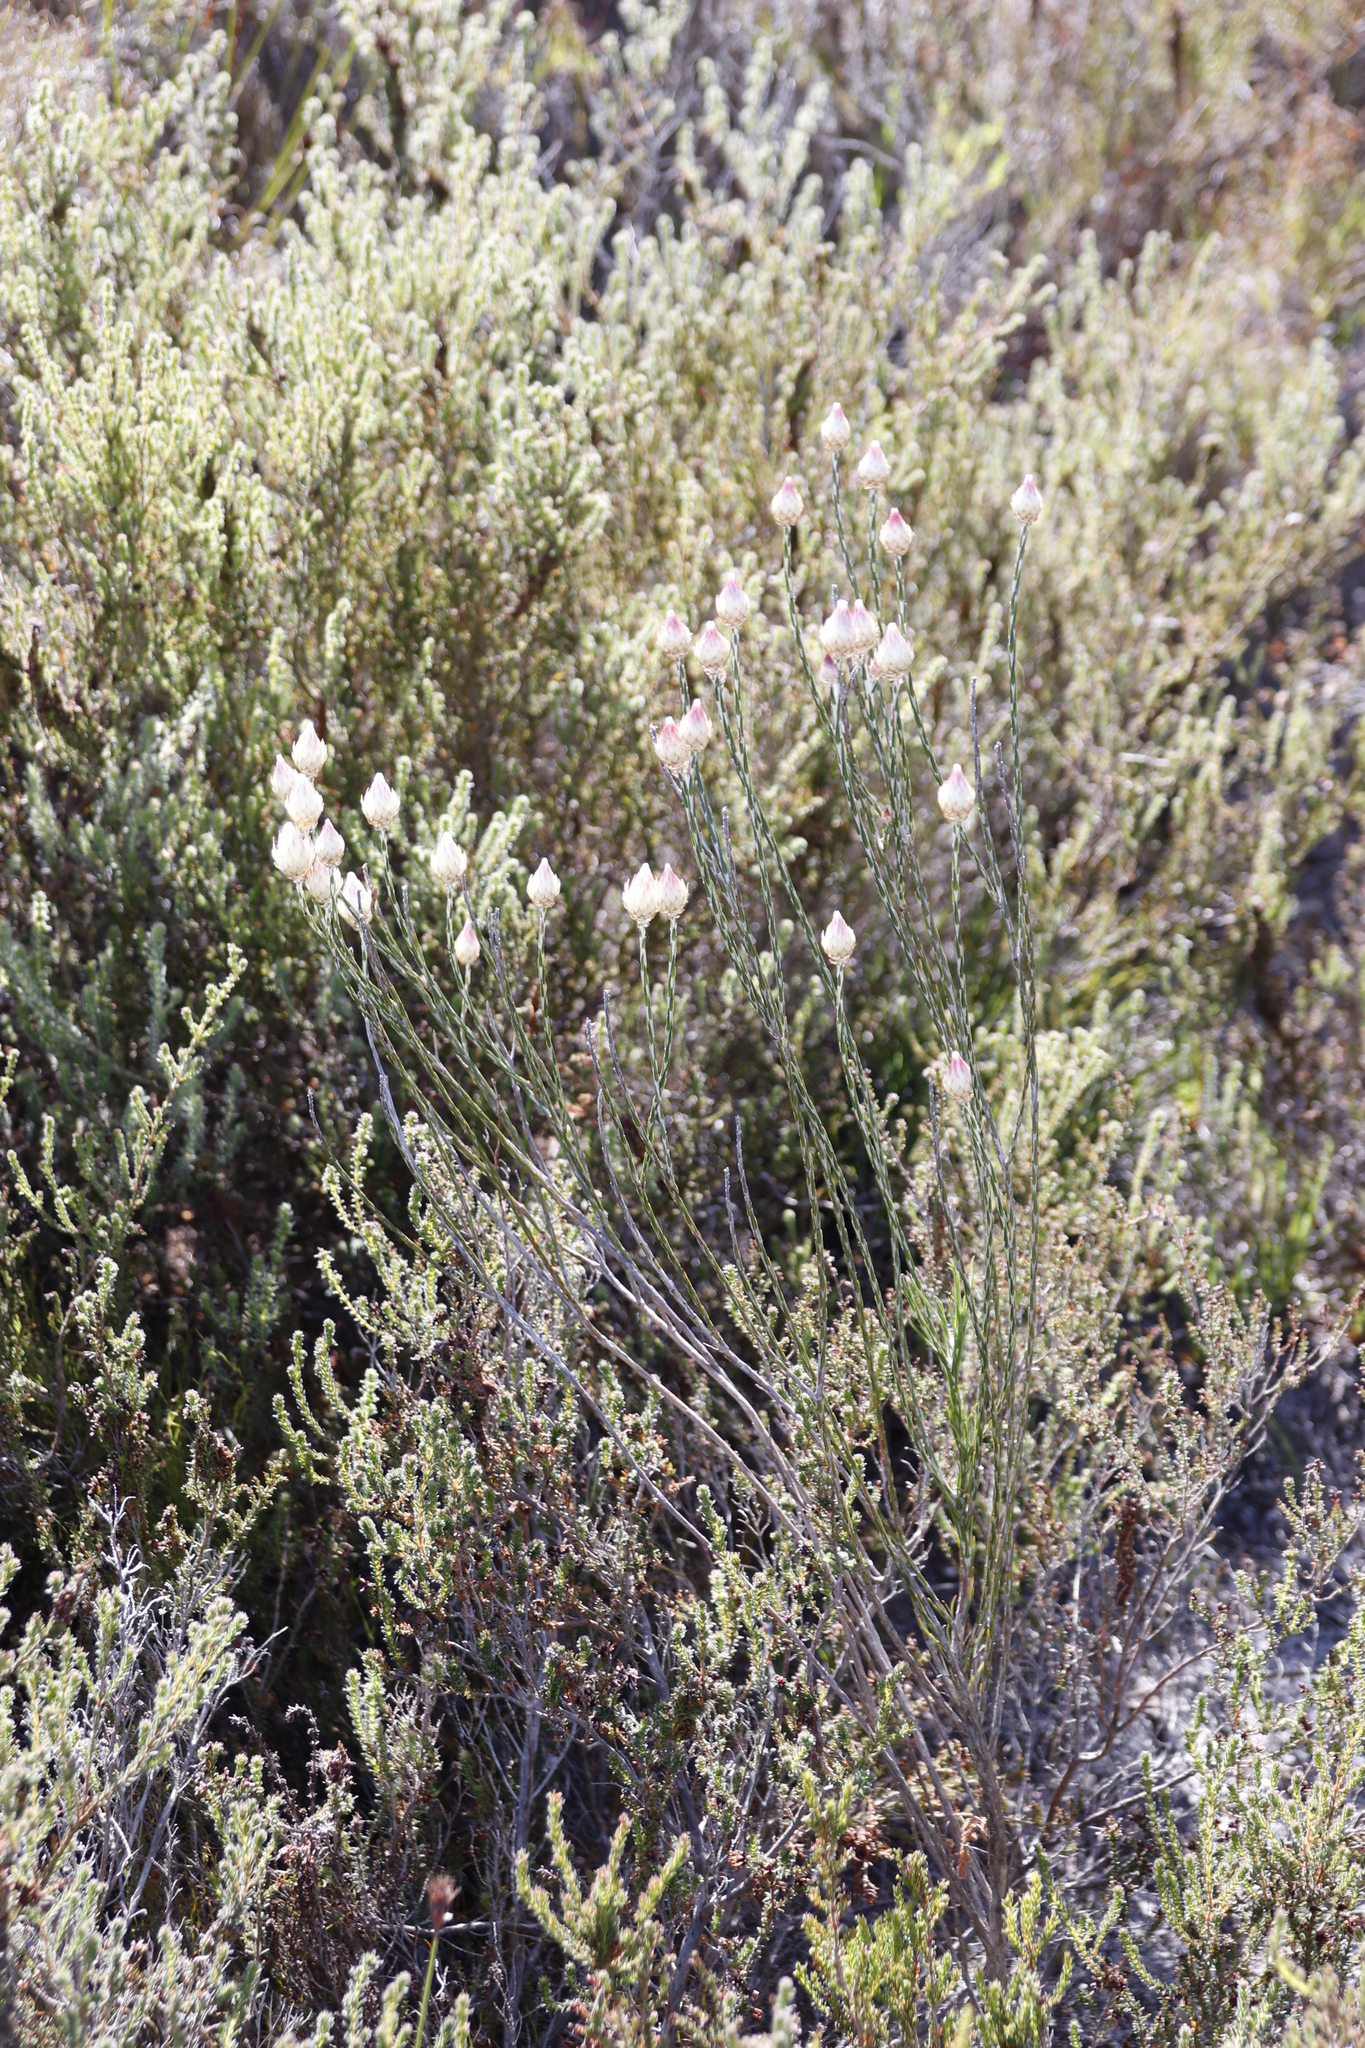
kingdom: Plantae
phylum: Tracheophyta
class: Magnoliopsida
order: Asterales
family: Asteraceae
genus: Edmondia
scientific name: Edmondia sesamoides
